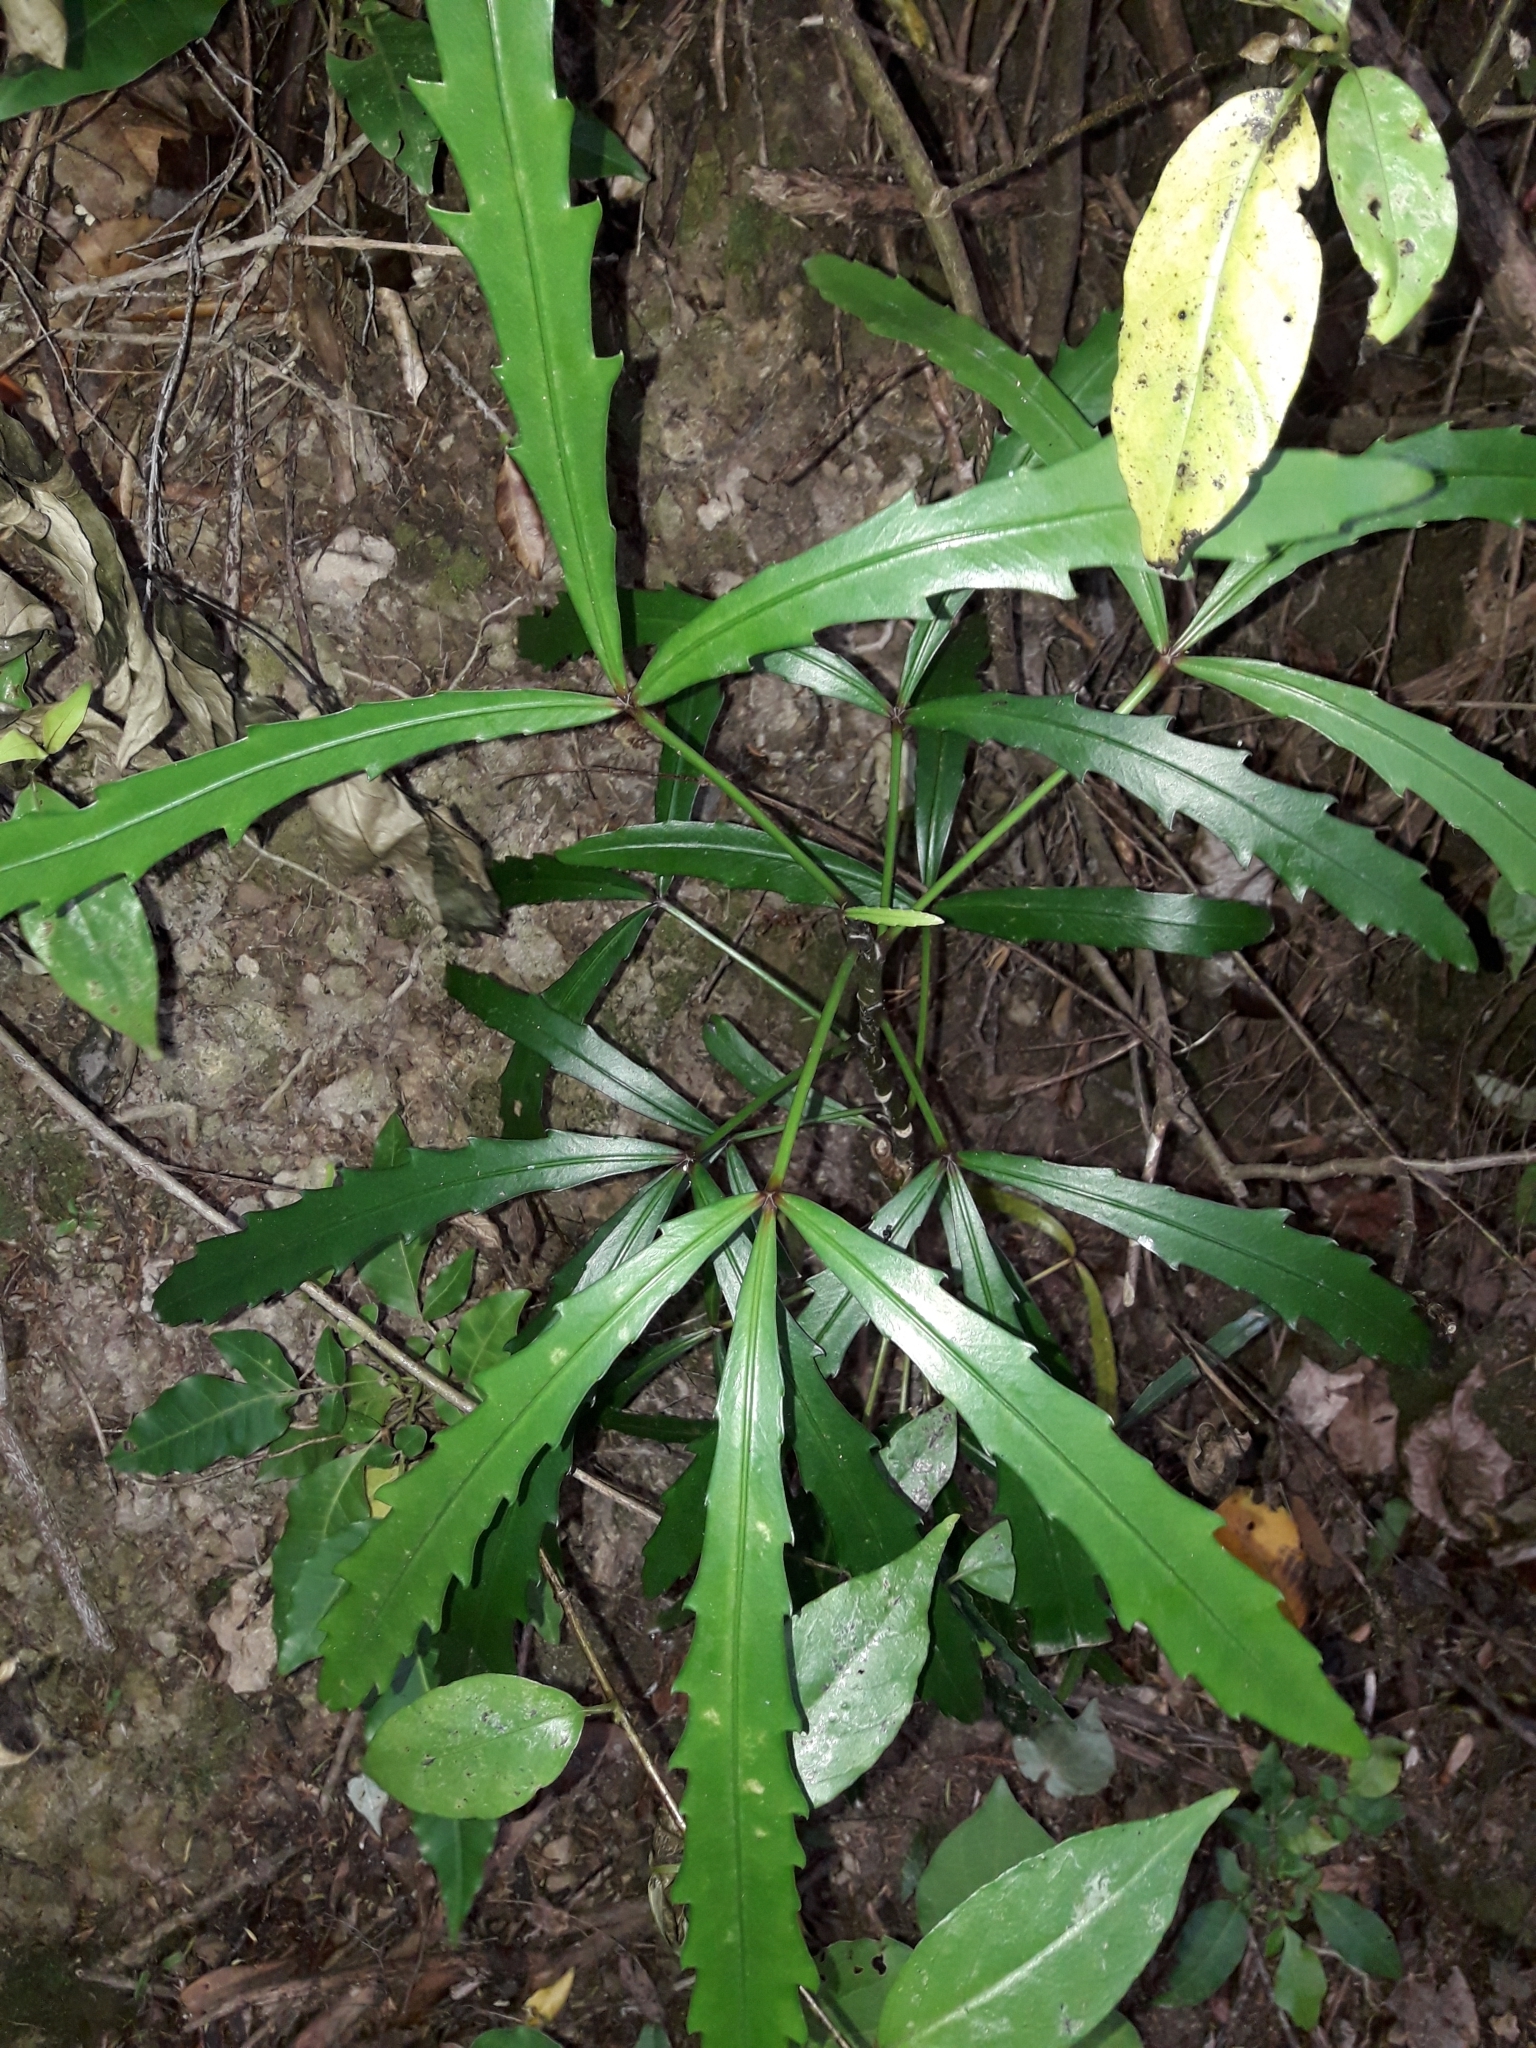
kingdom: Plantae
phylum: Tracheophyta
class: Magnoliopsida
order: Apiales
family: Araliaceae
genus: Pseudopanax
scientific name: Pseudopanax
